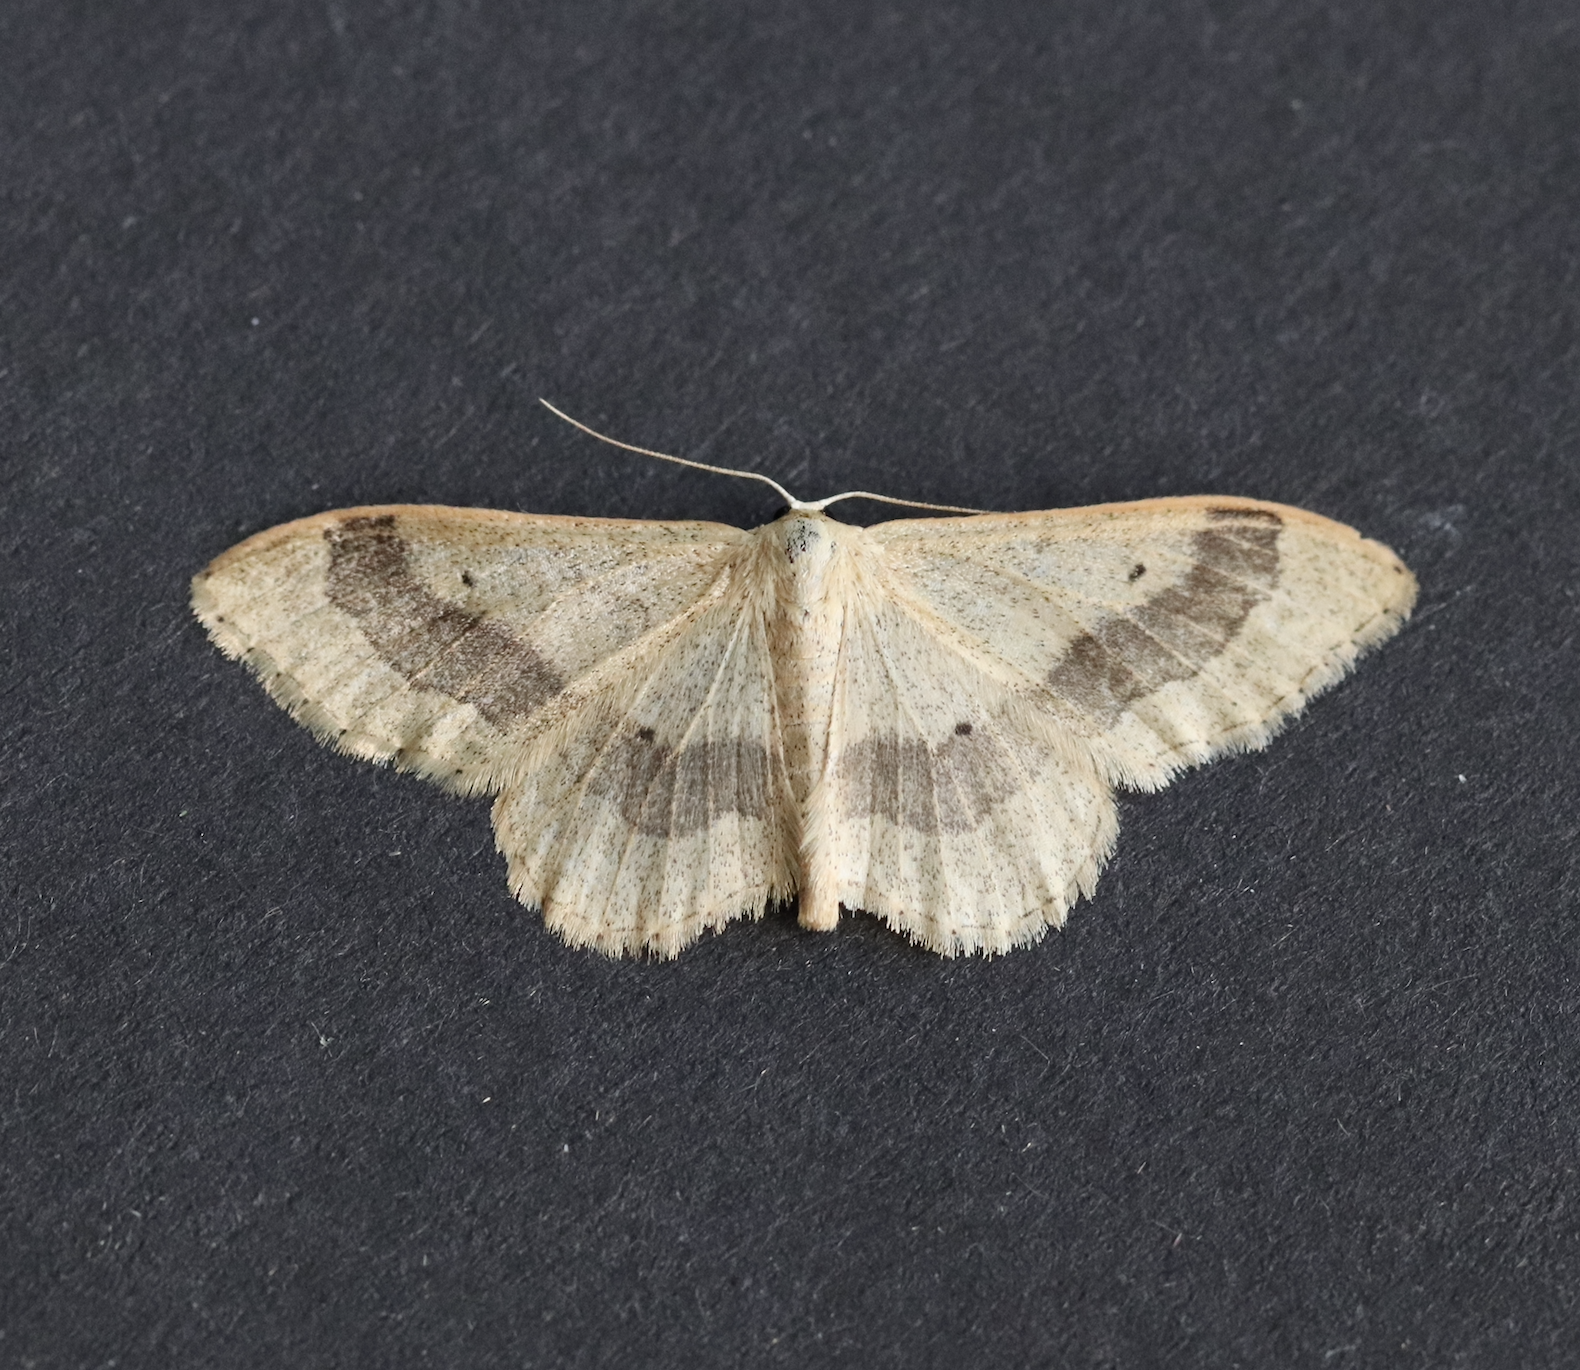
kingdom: Animalia
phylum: Arthropoda
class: Insecta
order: Lepidoptera
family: Geometridae
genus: Idaea
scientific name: Idaea aversata
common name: Riband wave
